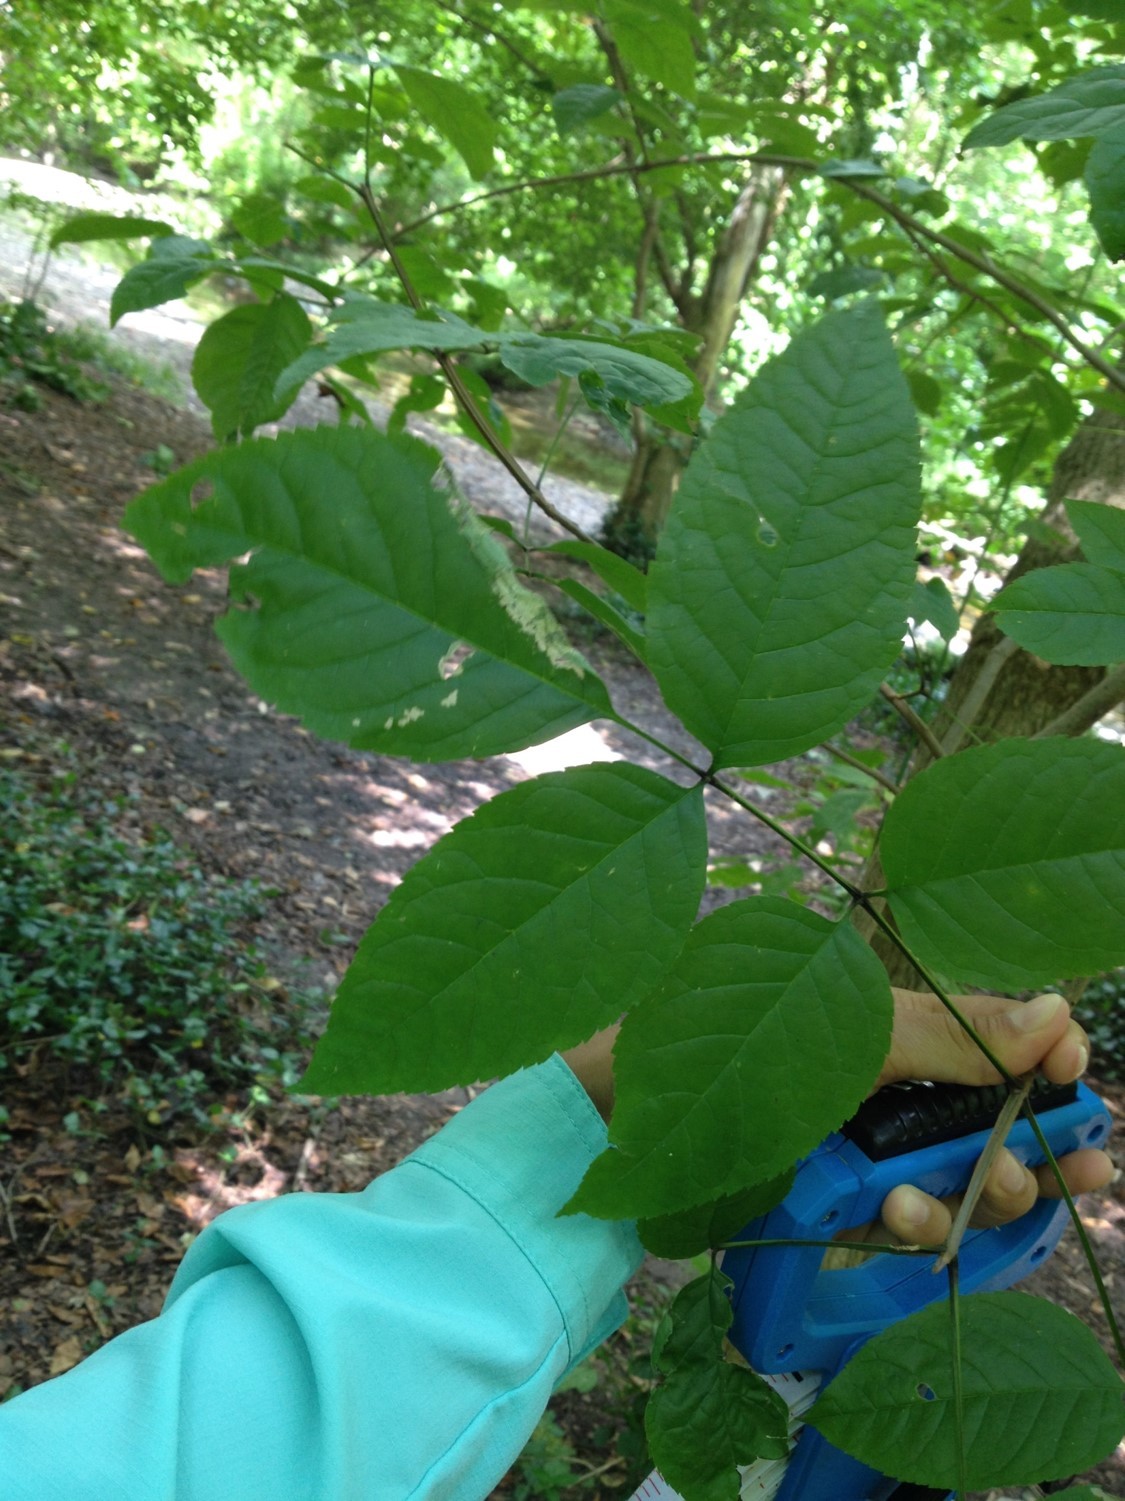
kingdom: Plantae
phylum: Tracheophyta
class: Magnoliopsida
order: Lamiales
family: Oleaceae
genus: Fraxinus
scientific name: Fraxinus quadrangulata
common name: Blue ash
